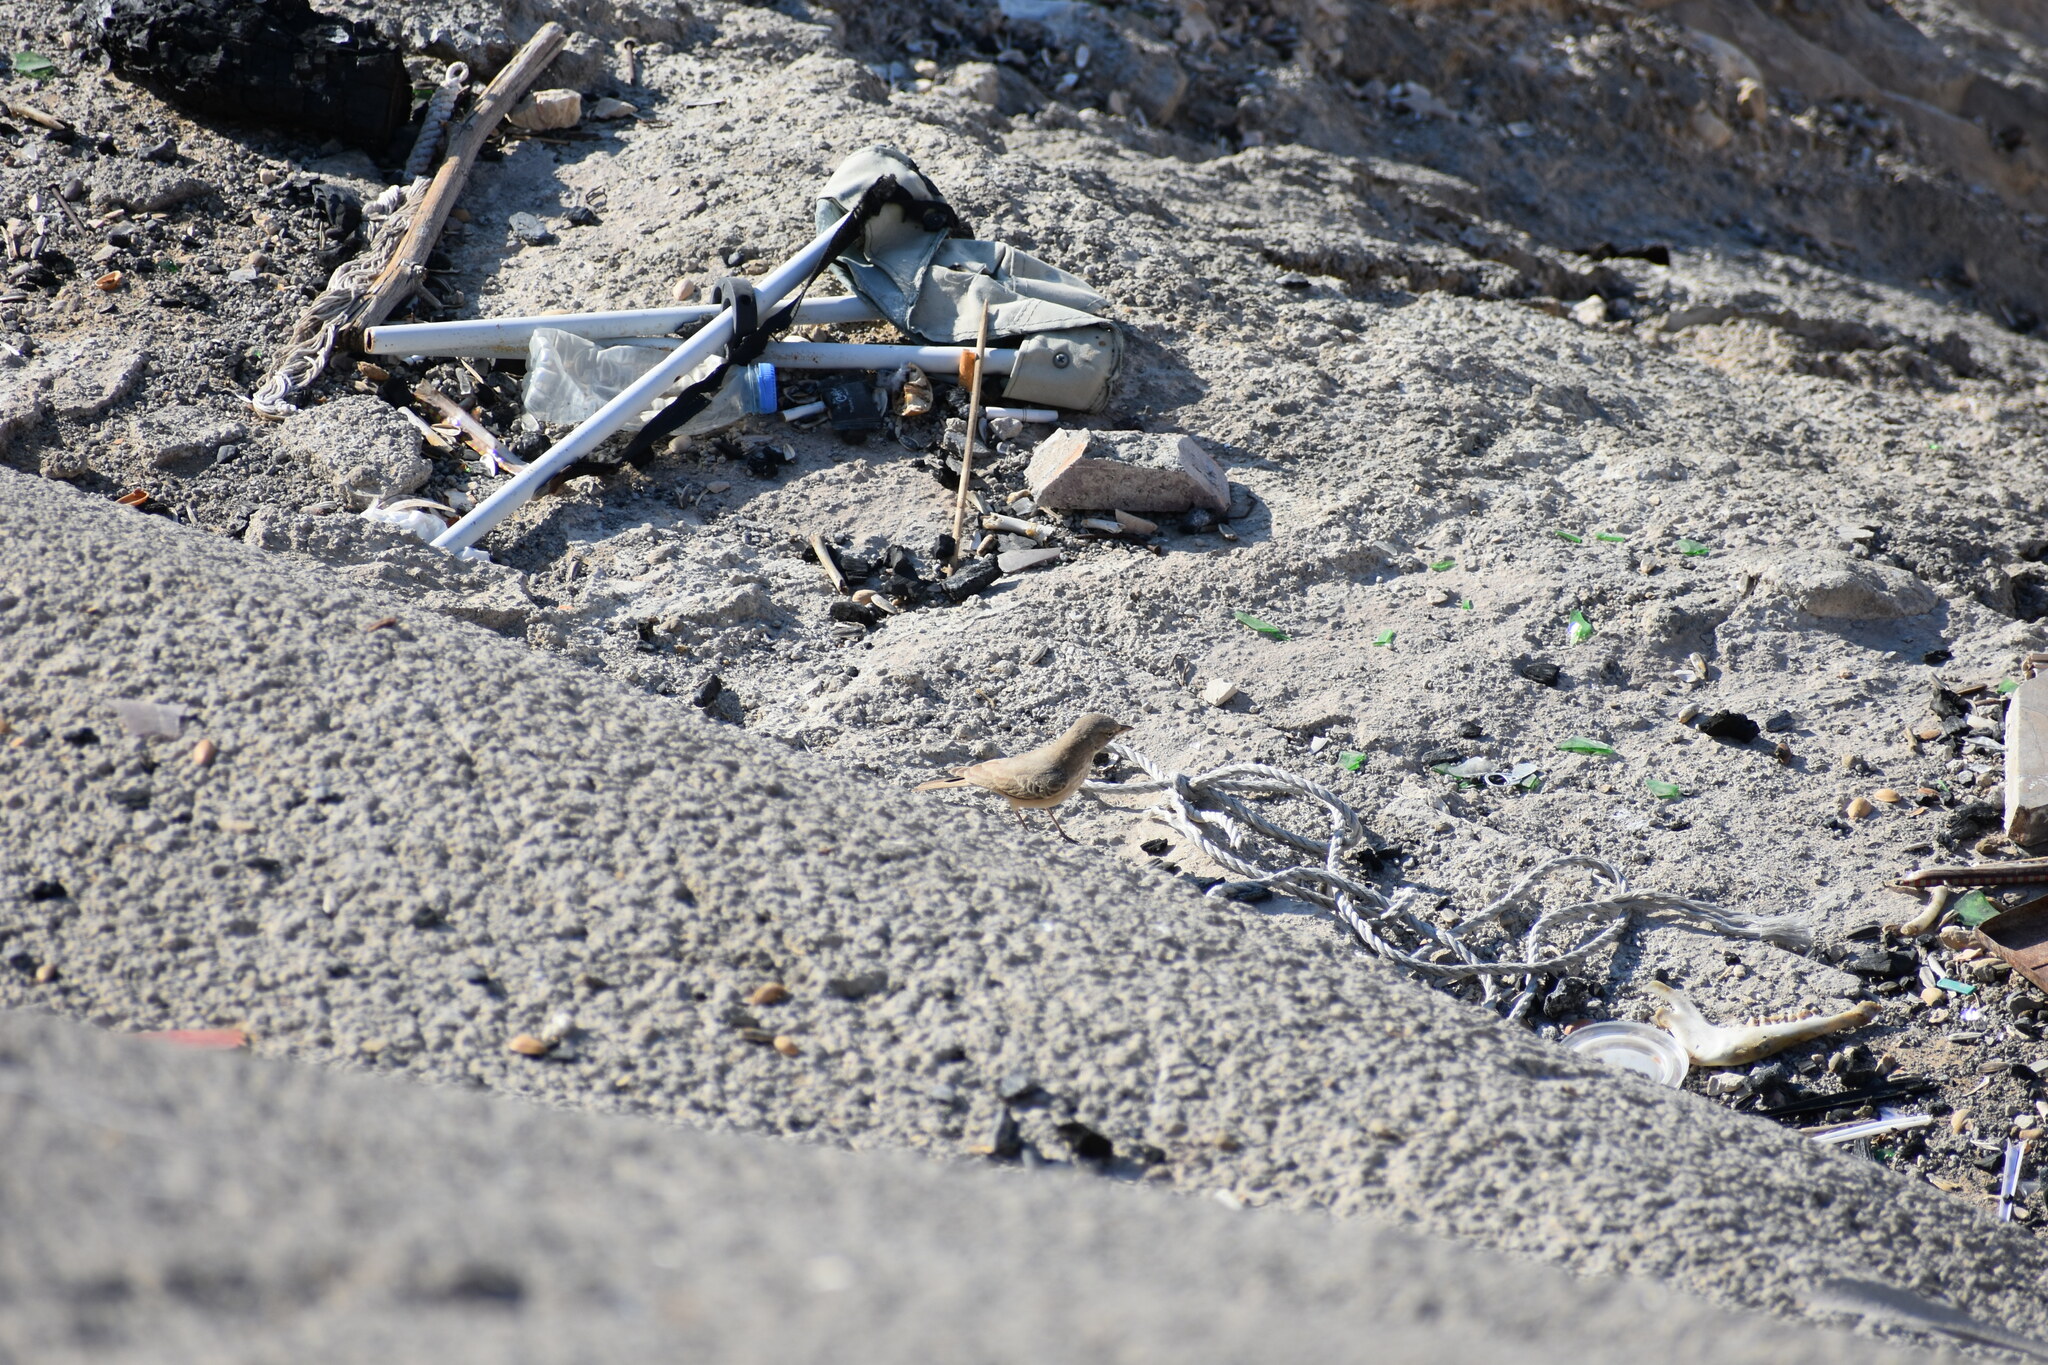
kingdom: Animalia
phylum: Chordata
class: Aves
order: Passeriformes
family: Alaudidae
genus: Ammomanes
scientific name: Ammomanes deserti
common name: Desert lark
